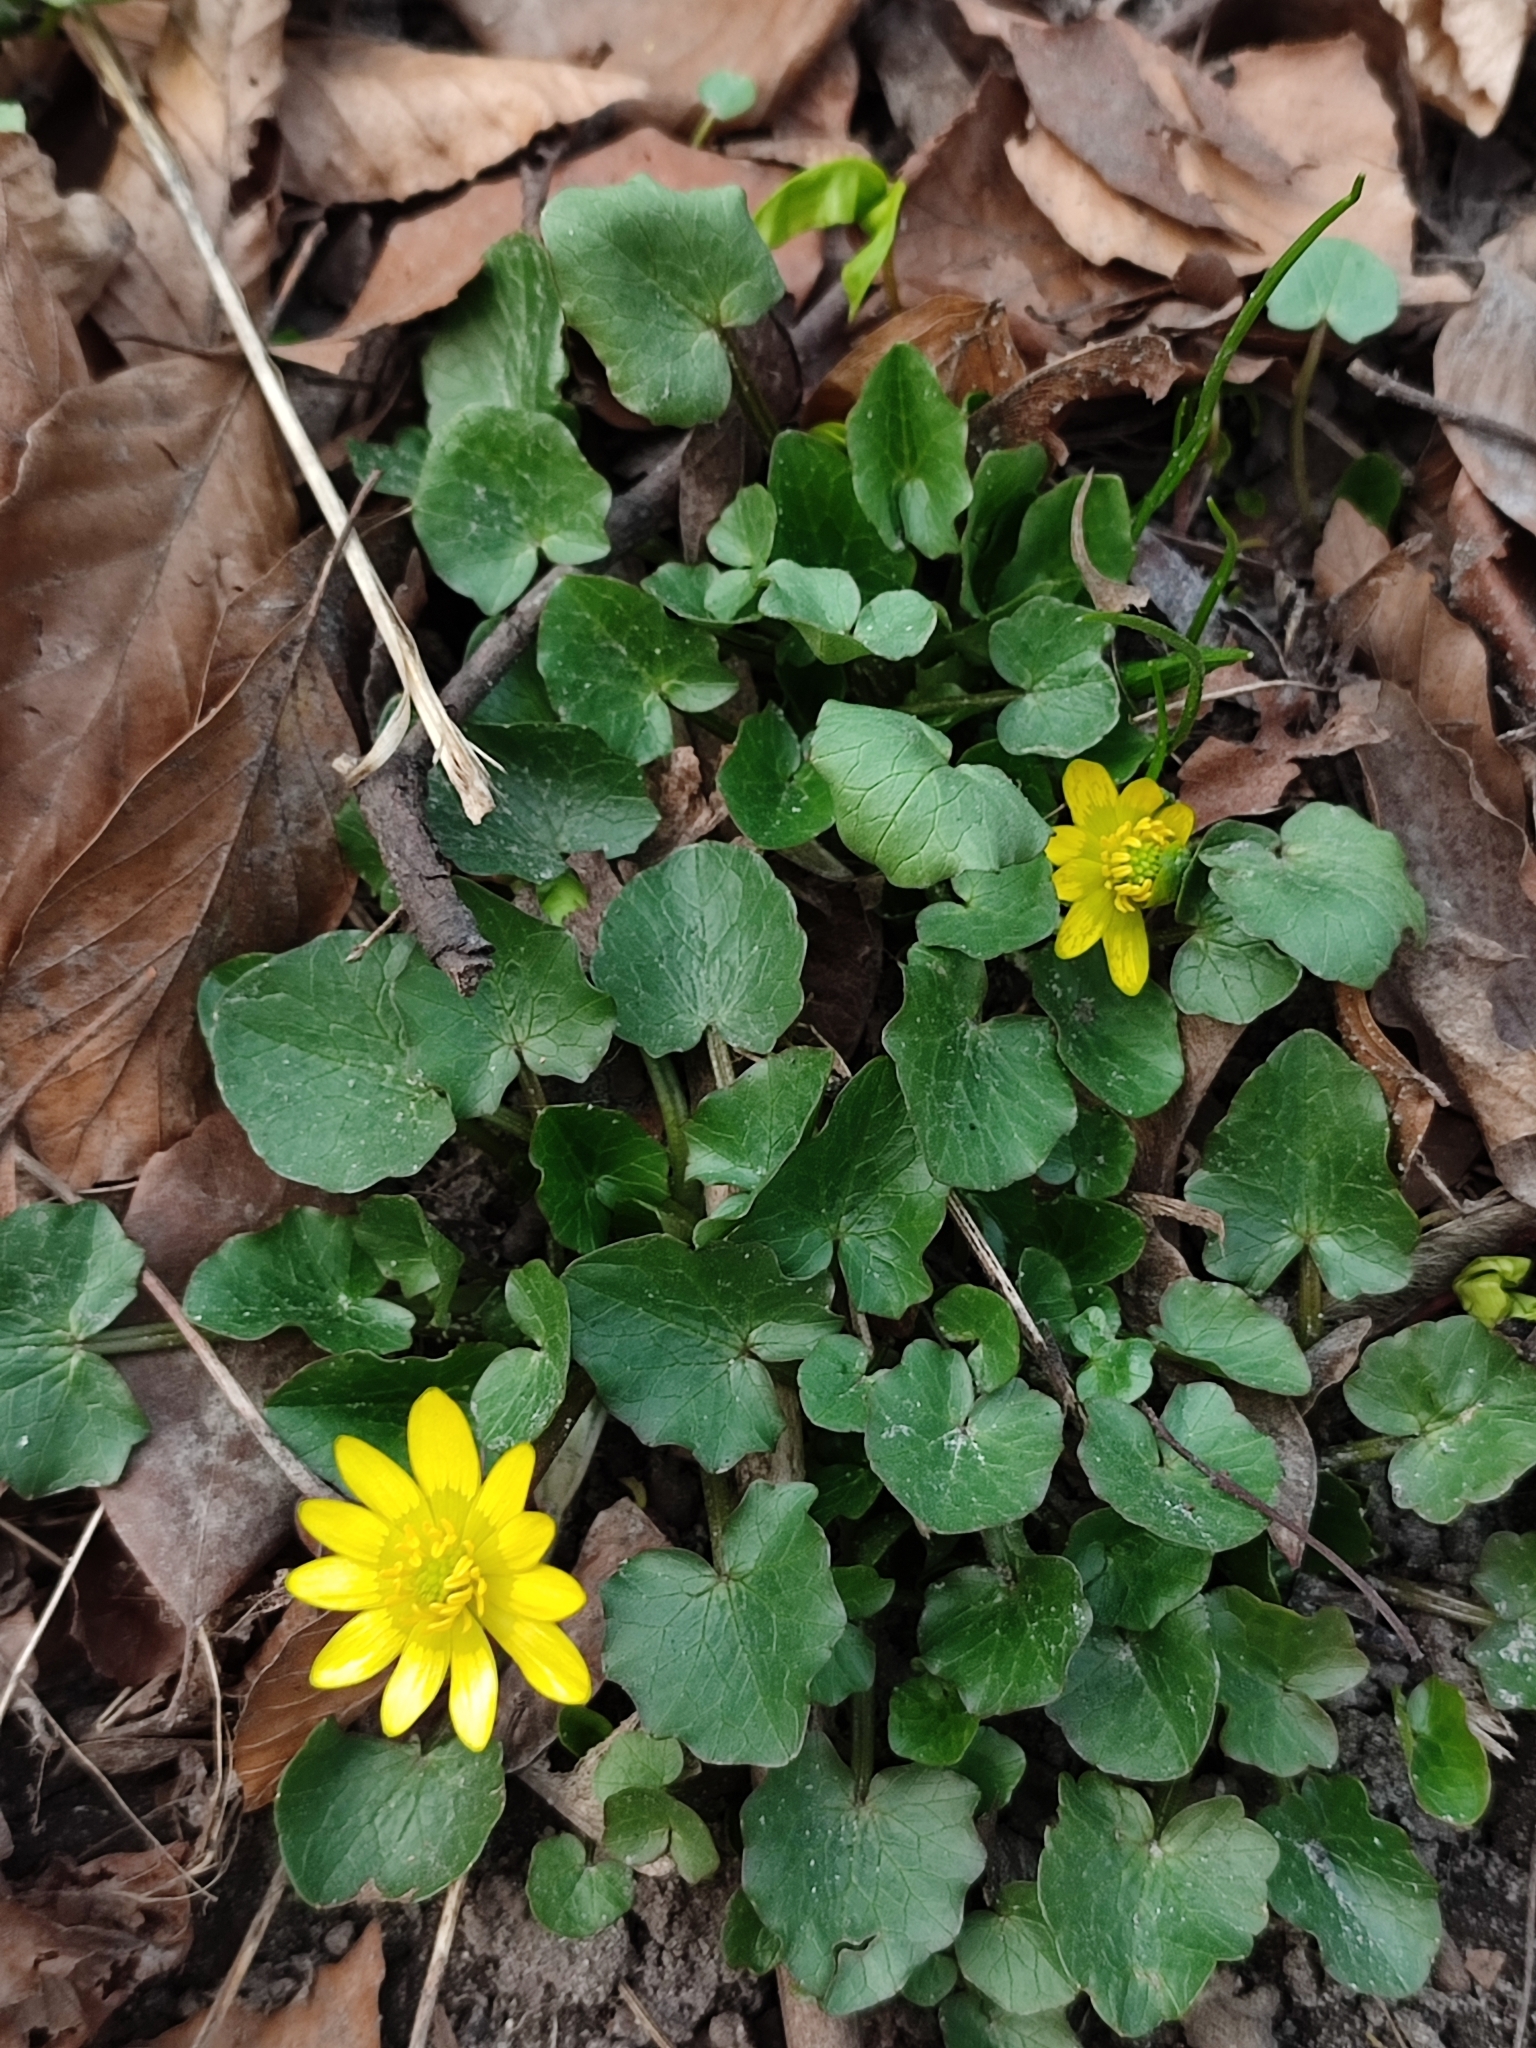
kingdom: Plantae
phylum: Tracheophyta
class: Magnoliopsida
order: Ranunculales
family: Ranunculaceae
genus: Ficaria
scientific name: Ficaria verna
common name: Lesser celandine
